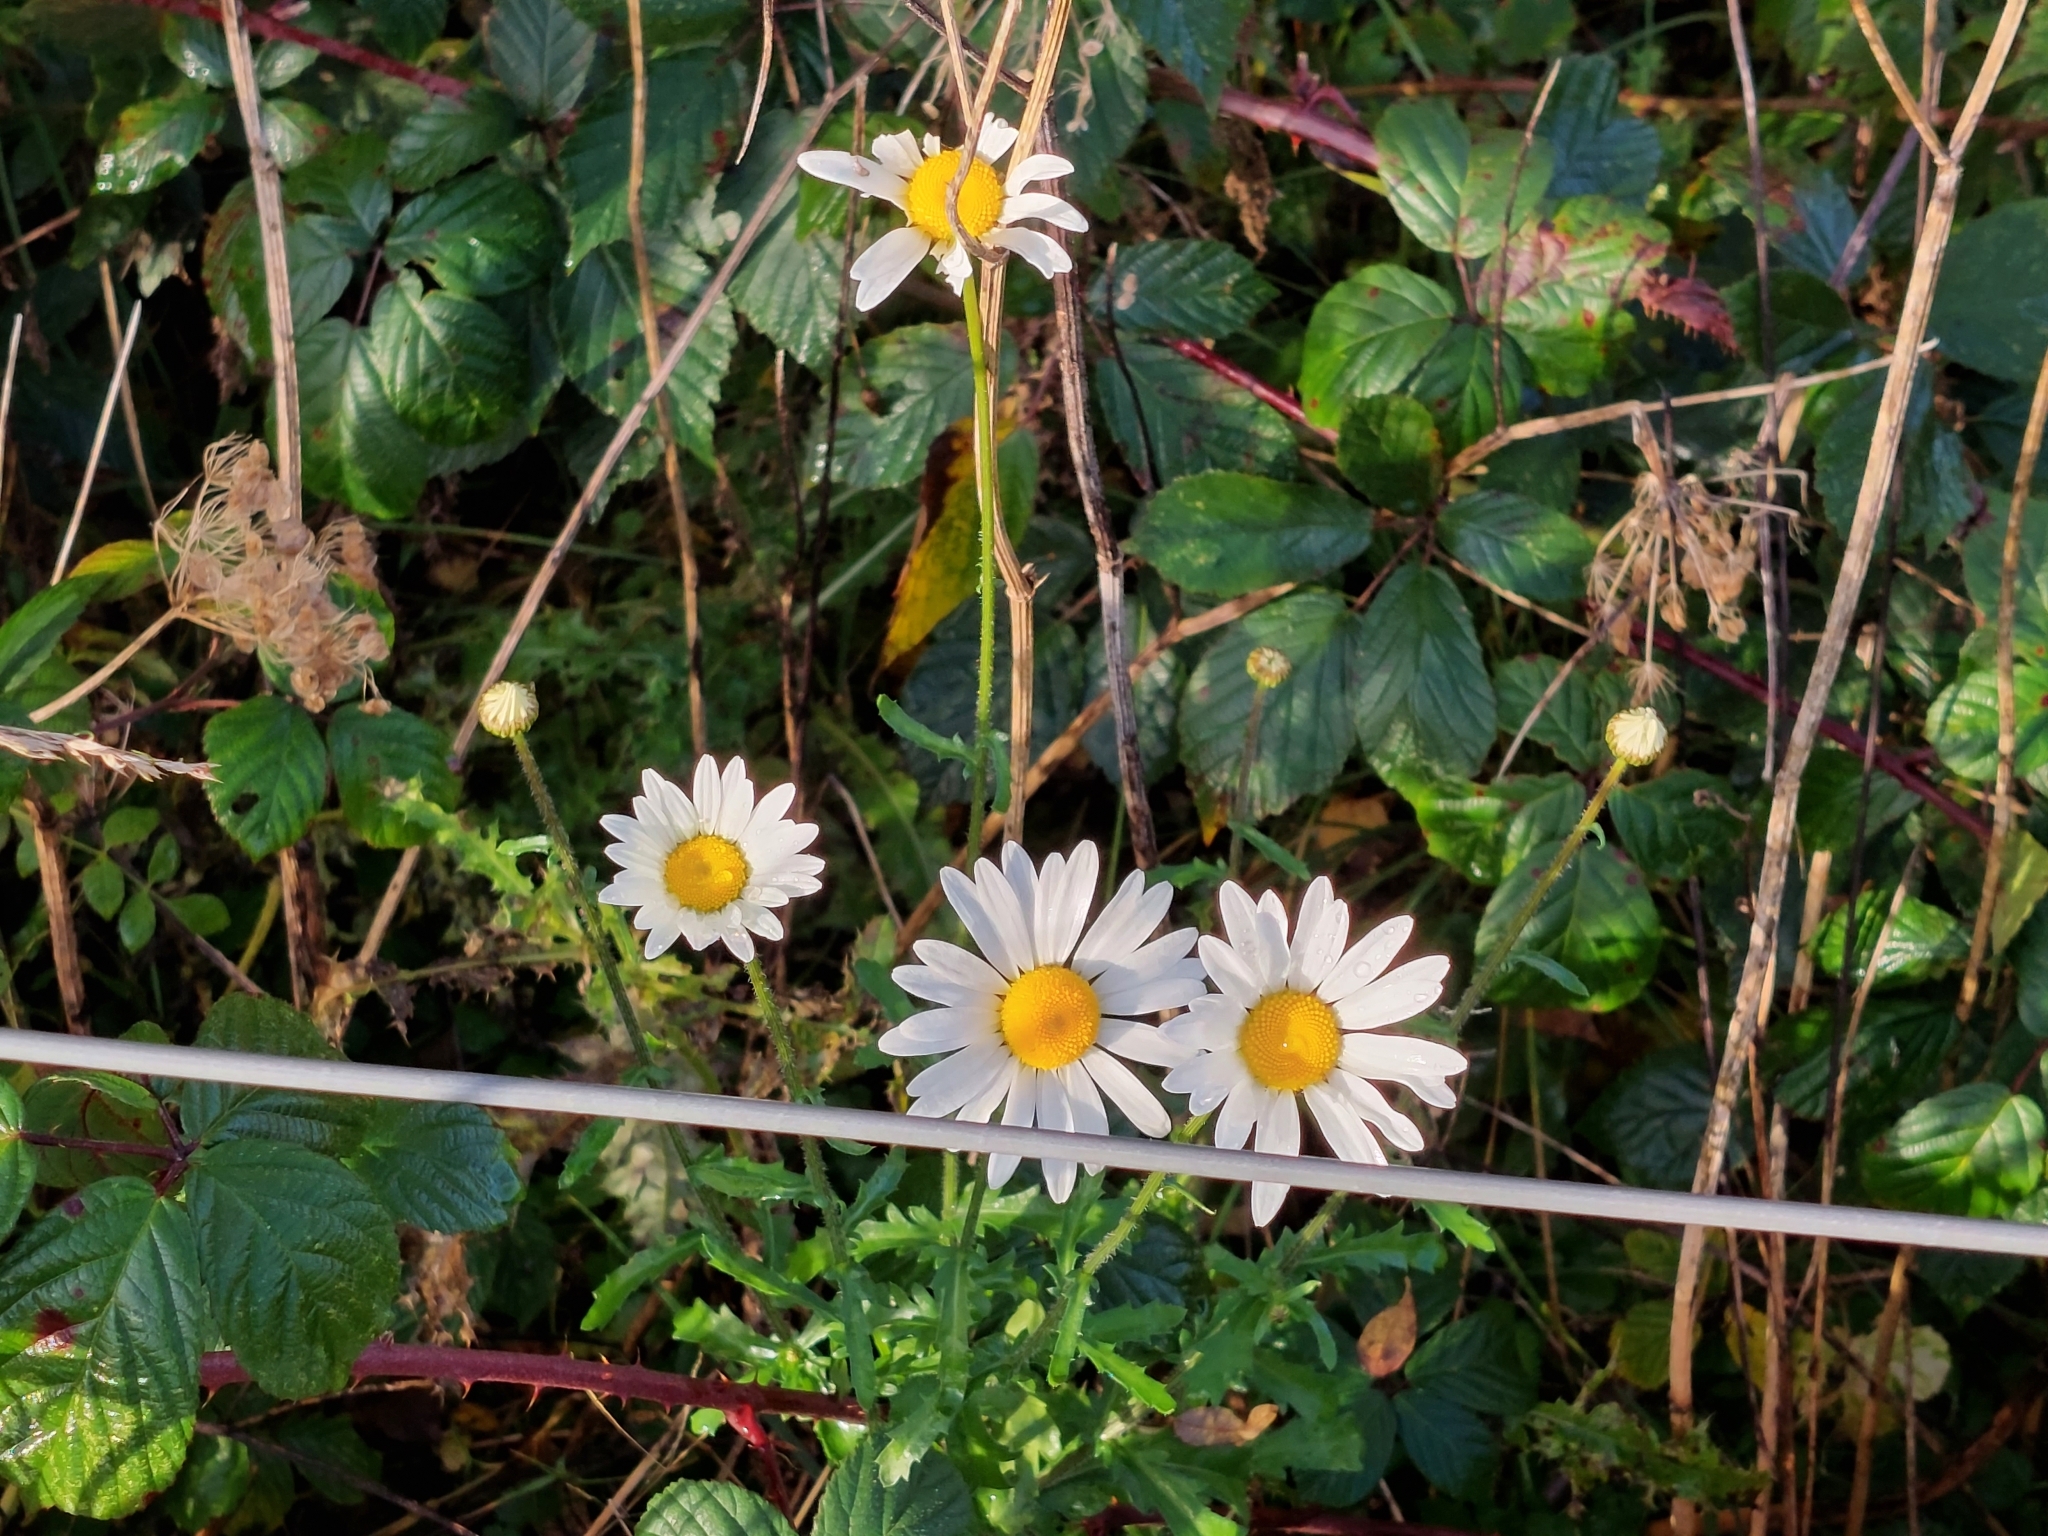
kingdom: Plantae
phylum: Tracheophyta
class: Magnoliopsida
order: Asterales
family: Asteraceae
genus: Leucanthemum
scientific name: Leucanthemum vulgare
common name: Oxeye daisy
